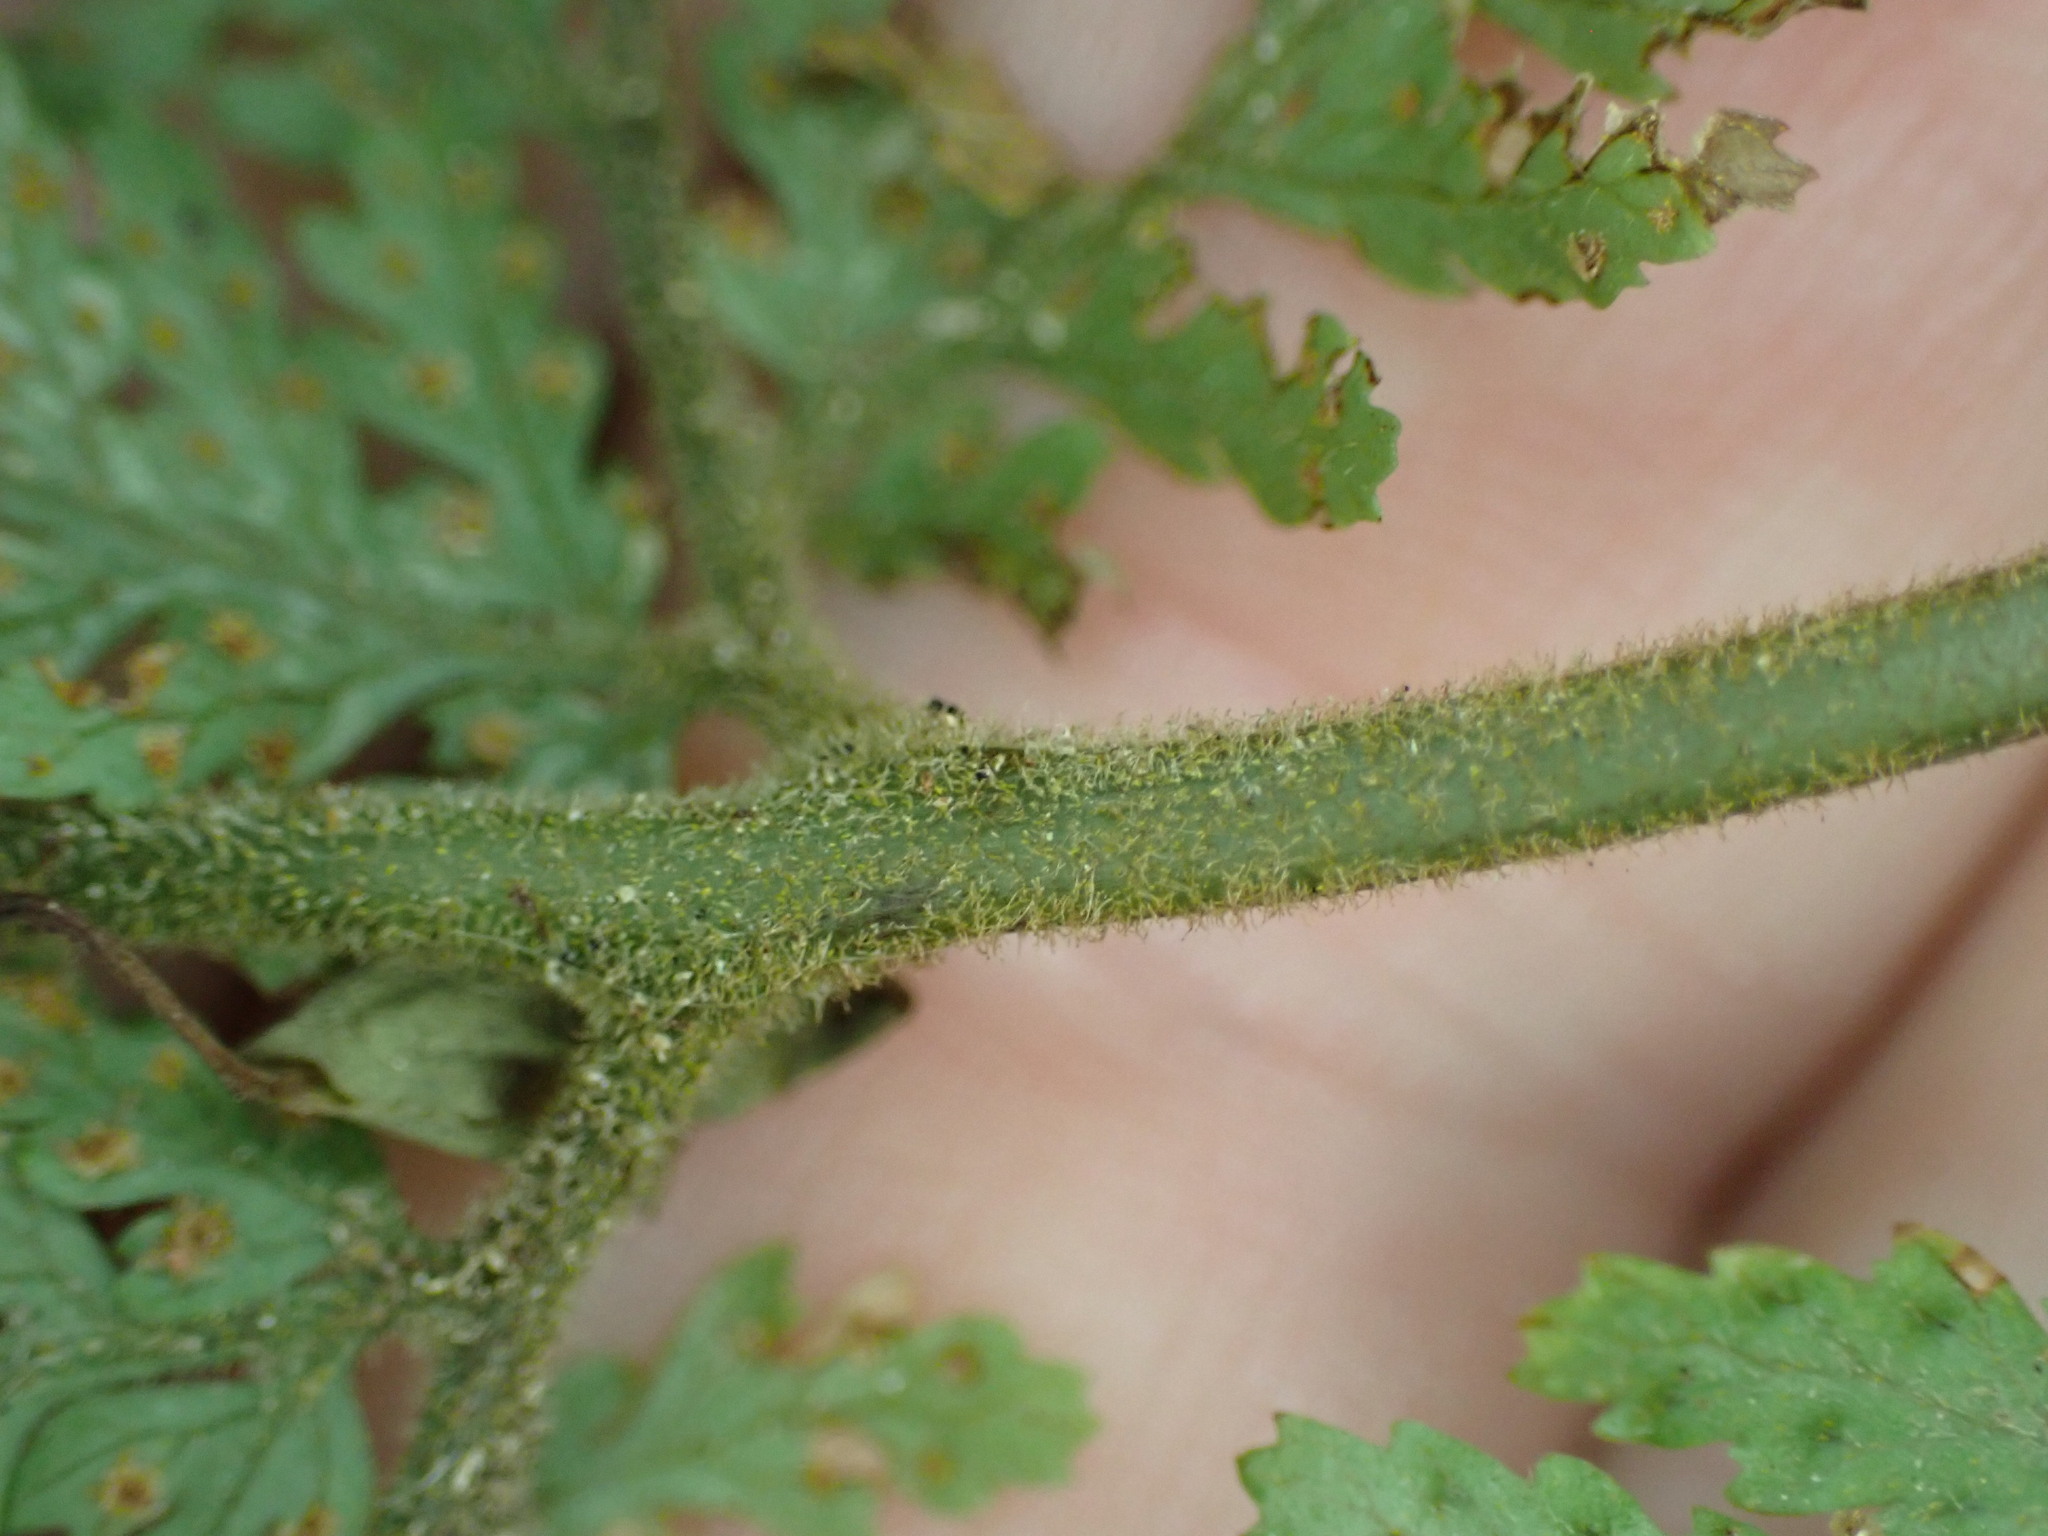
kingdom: Plantae
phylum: Tracheophyta
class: Polypodiopsida
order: Polypodiales
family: Dryopteridaceae
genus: Parapolystichum
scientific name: Parapolystichum microsorum
